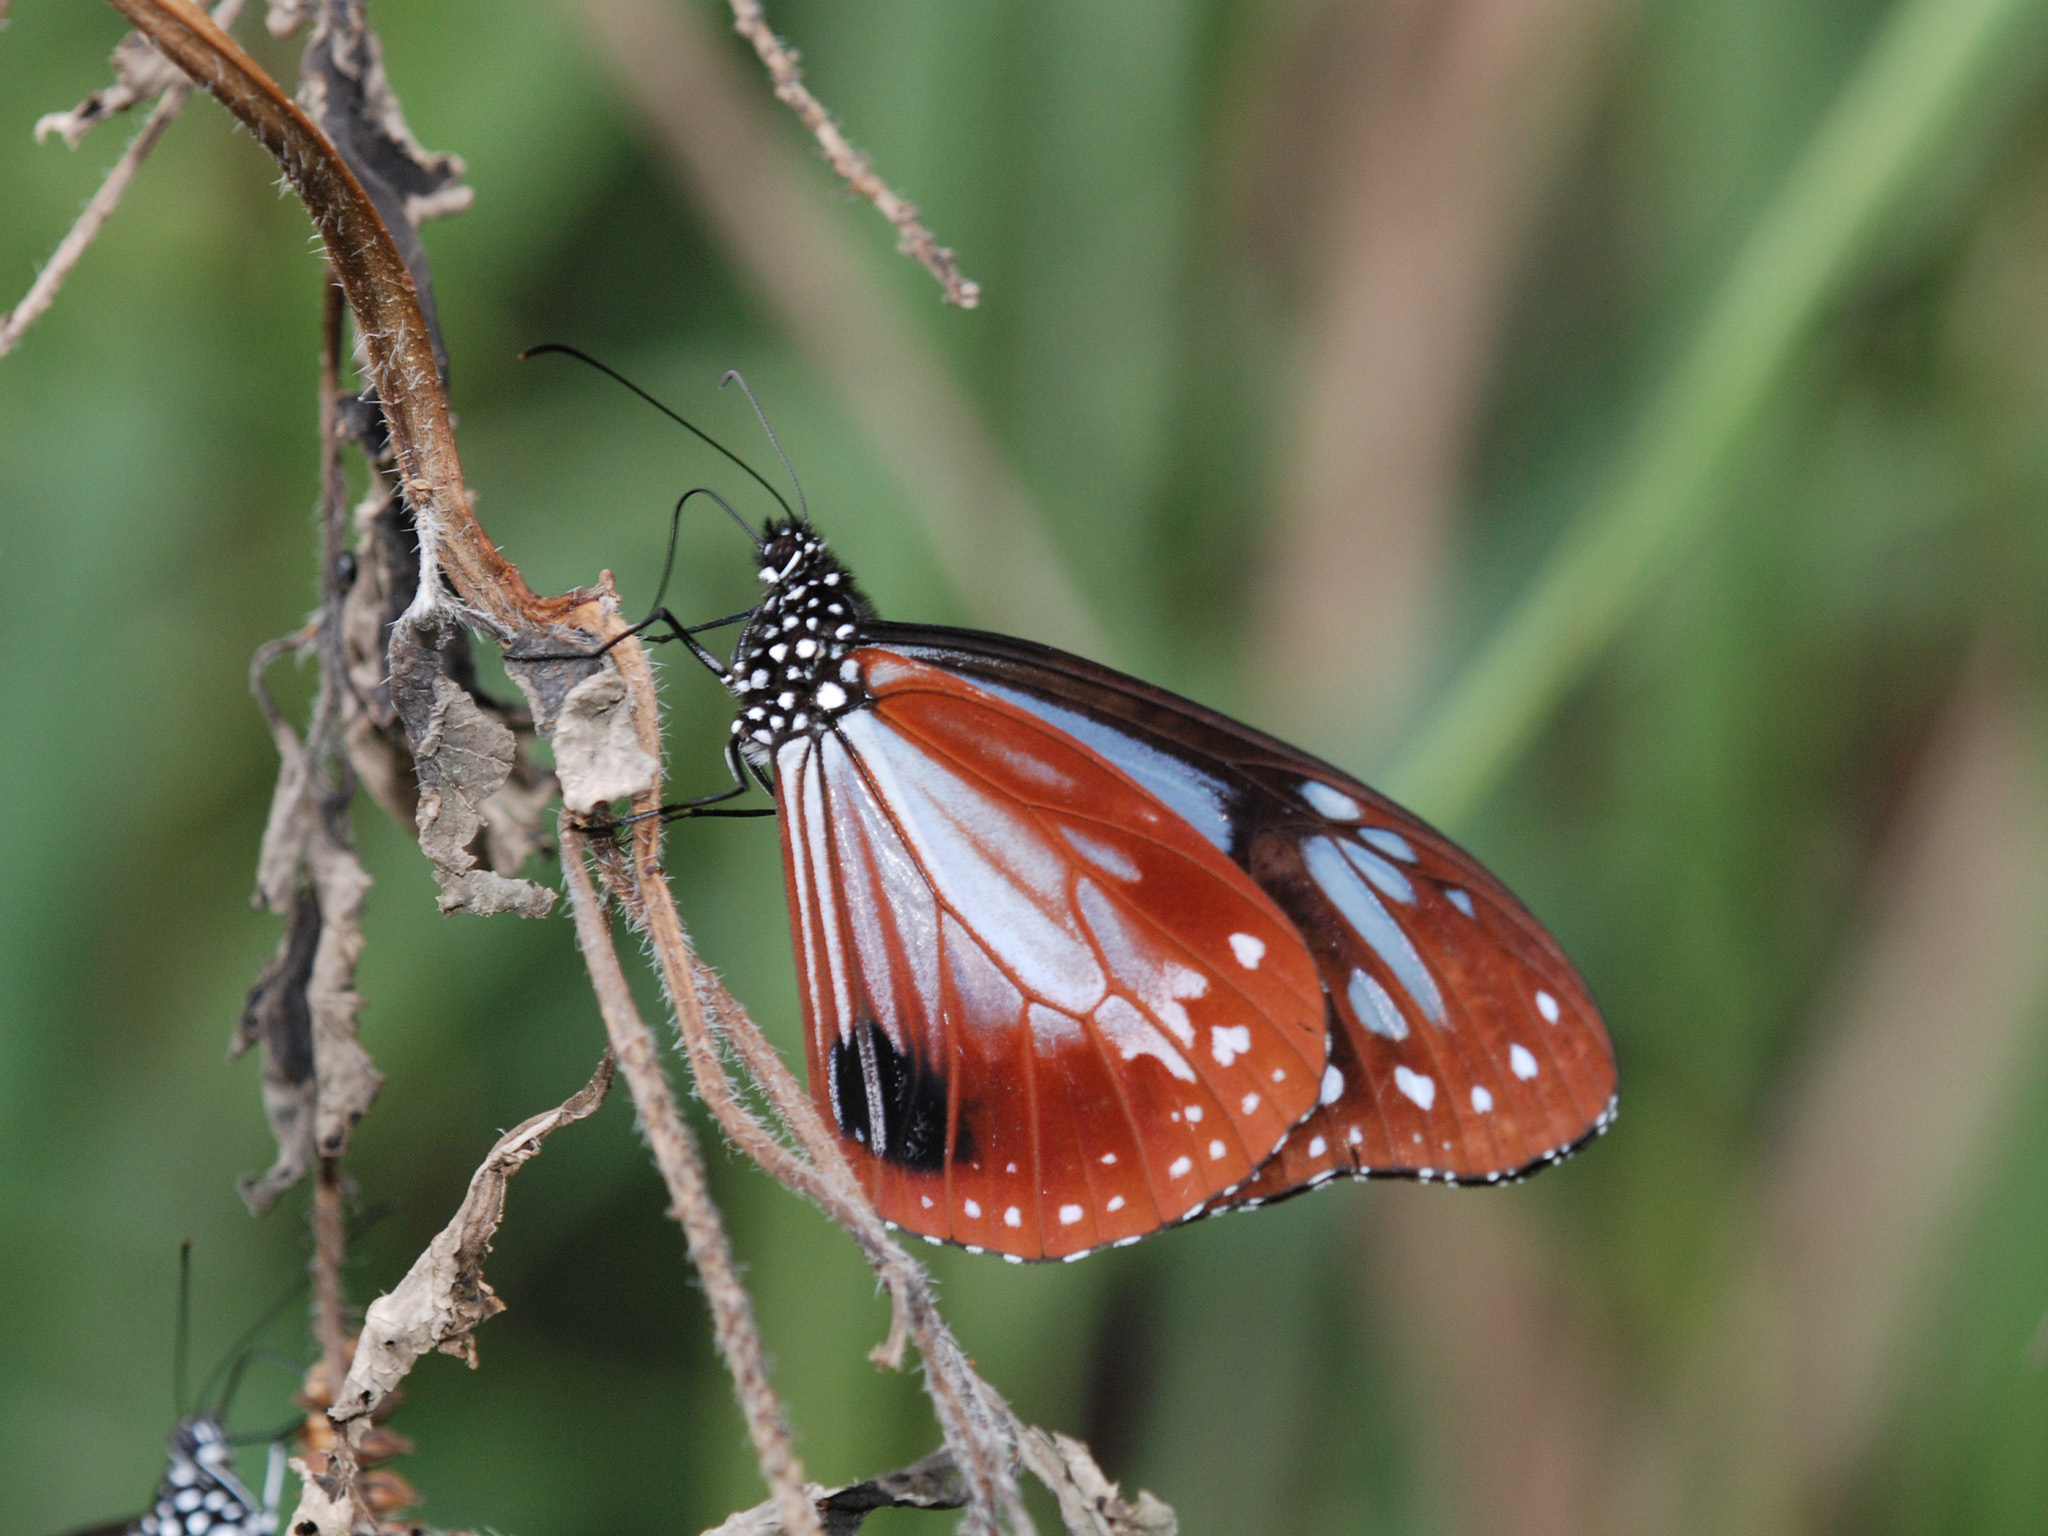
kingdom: Animalia
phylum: Arthropoda
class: Insecta
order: Lepidoptera
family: Nymphalidae
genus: Parantica
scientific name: Parantica sita
